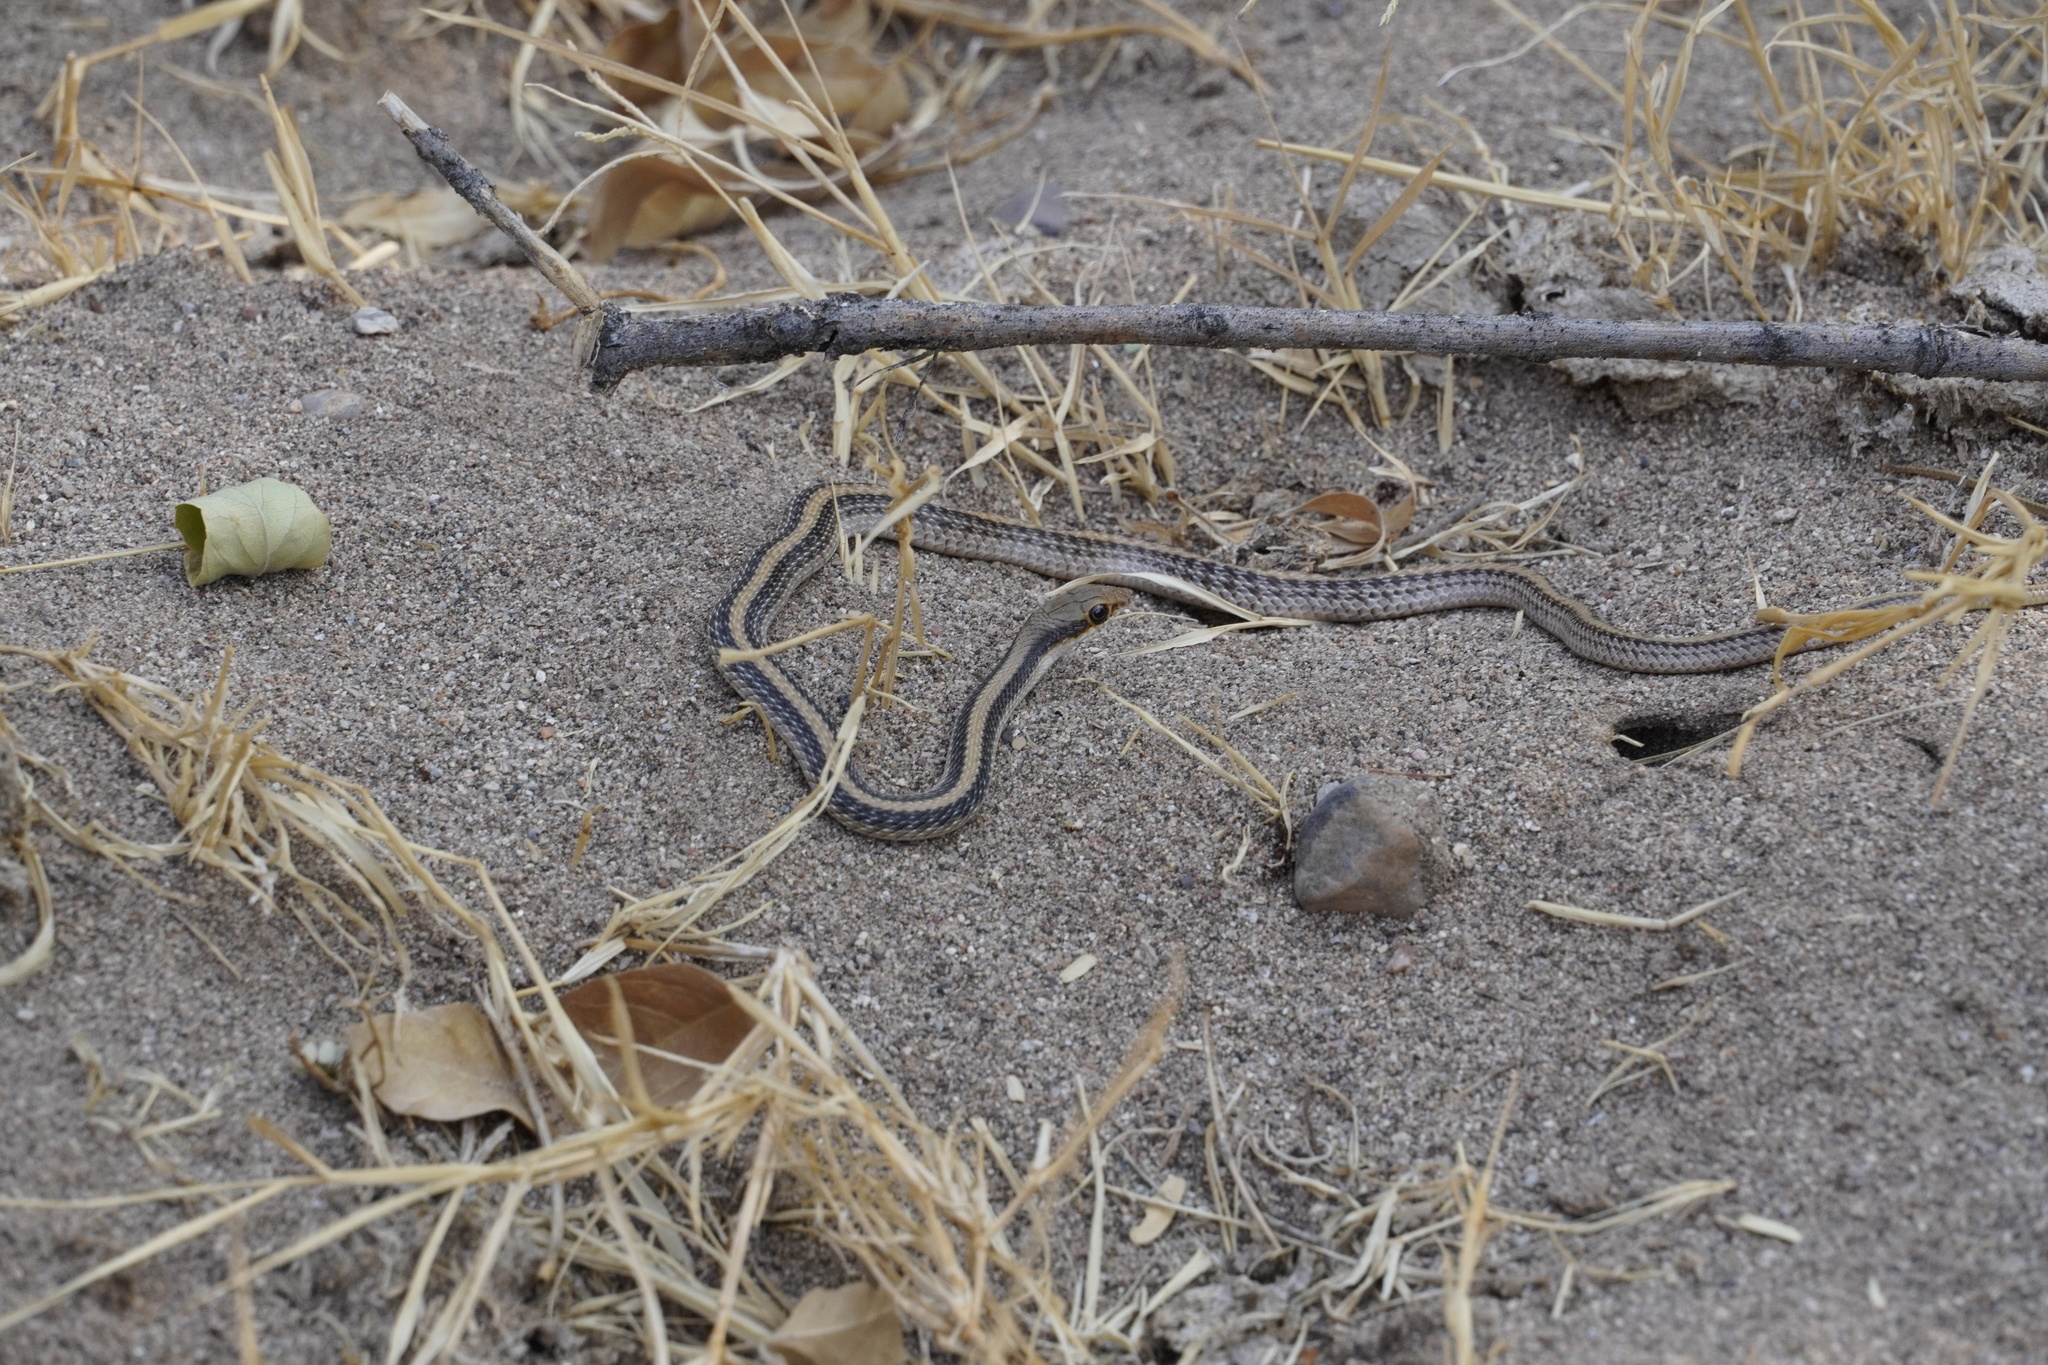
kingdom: Animalia
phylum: Chordata
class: Squamata
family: Colubridae
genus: Salvadora
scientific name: Salvadora hexalepis
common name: Western patchnose snake
